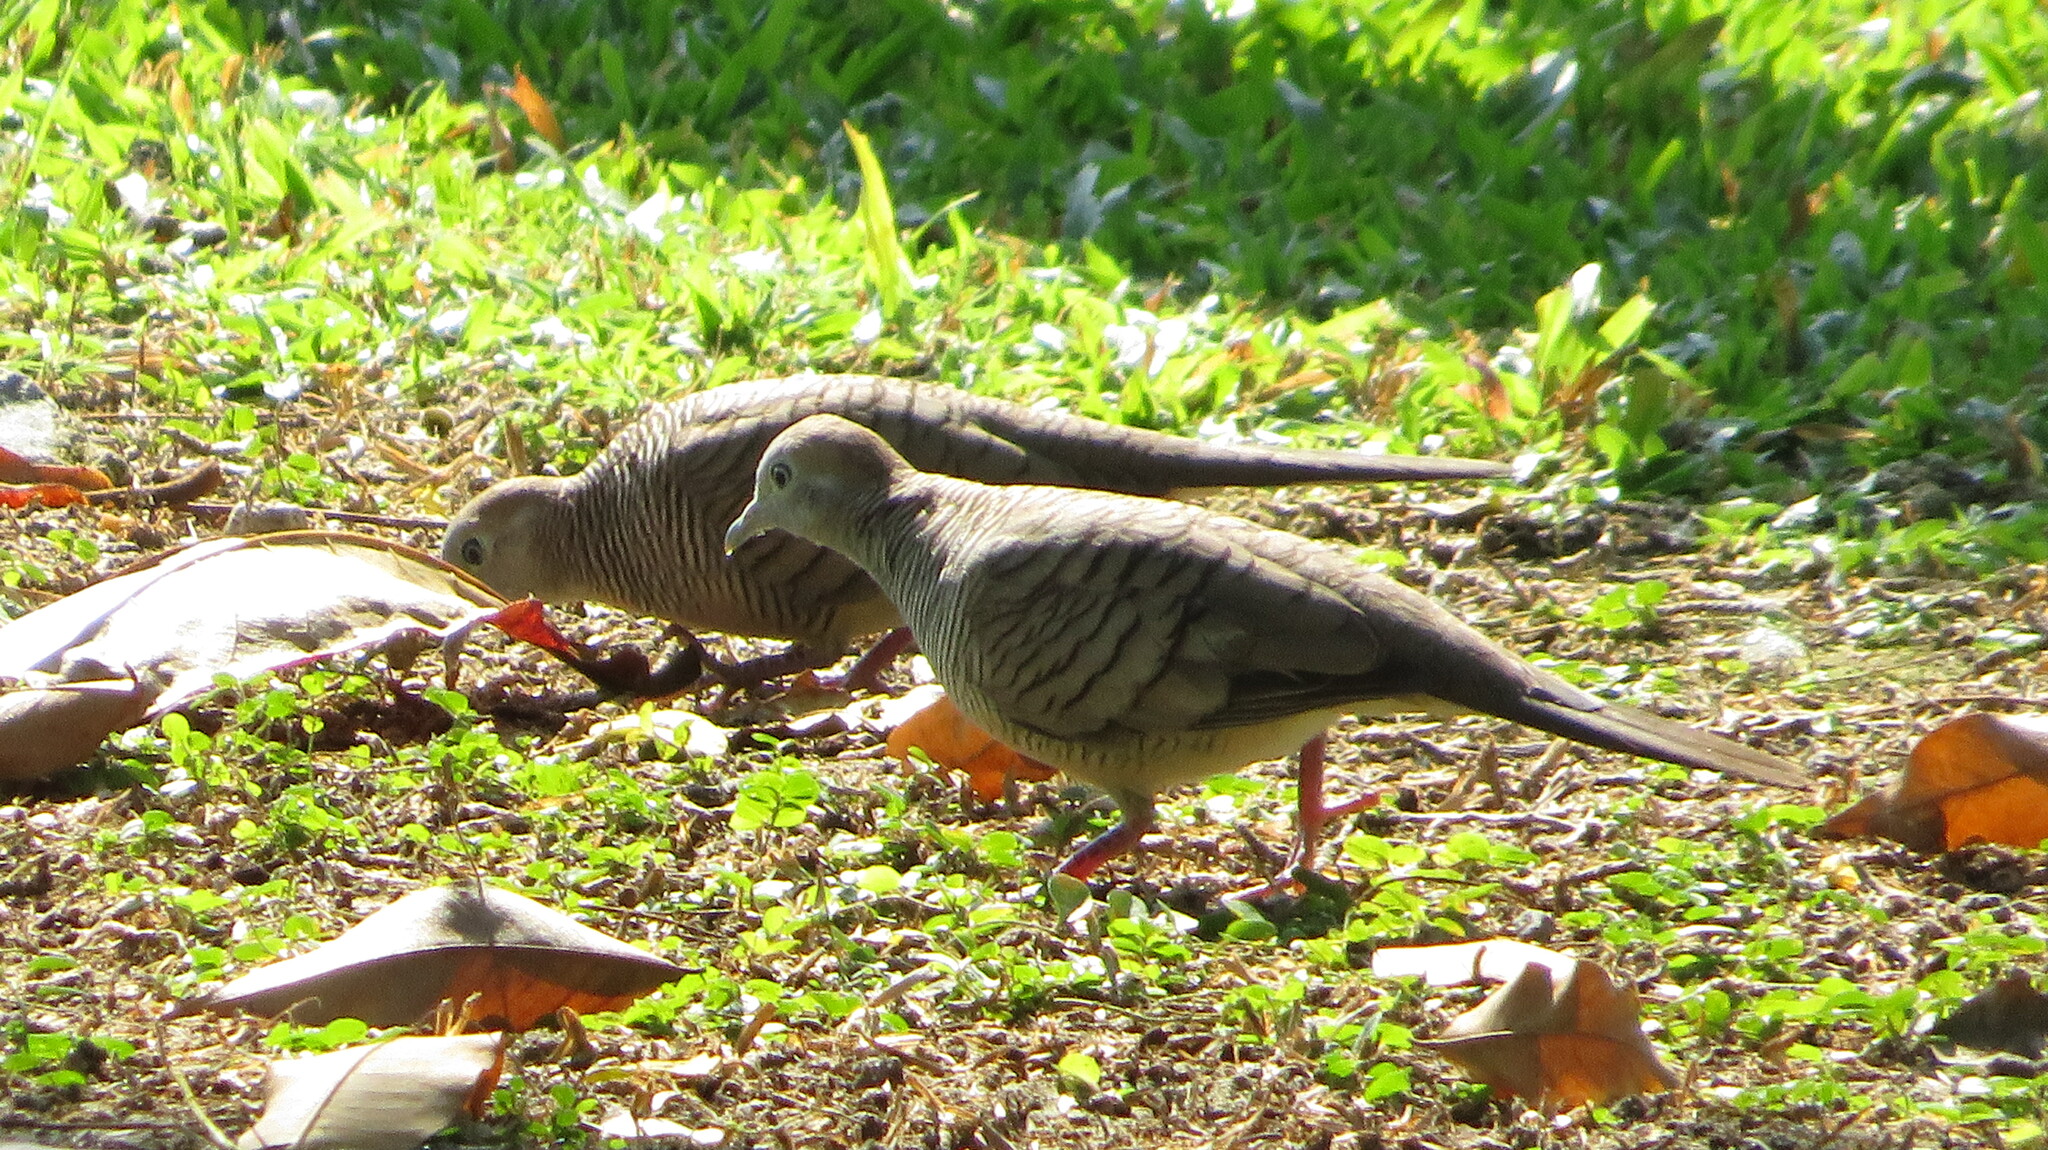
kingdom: Animalia
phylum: Chordata
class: Aves
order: Columbiformes
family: Columbidae
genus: Geopelia
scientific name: Geopelia striata
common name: Zebra dove
